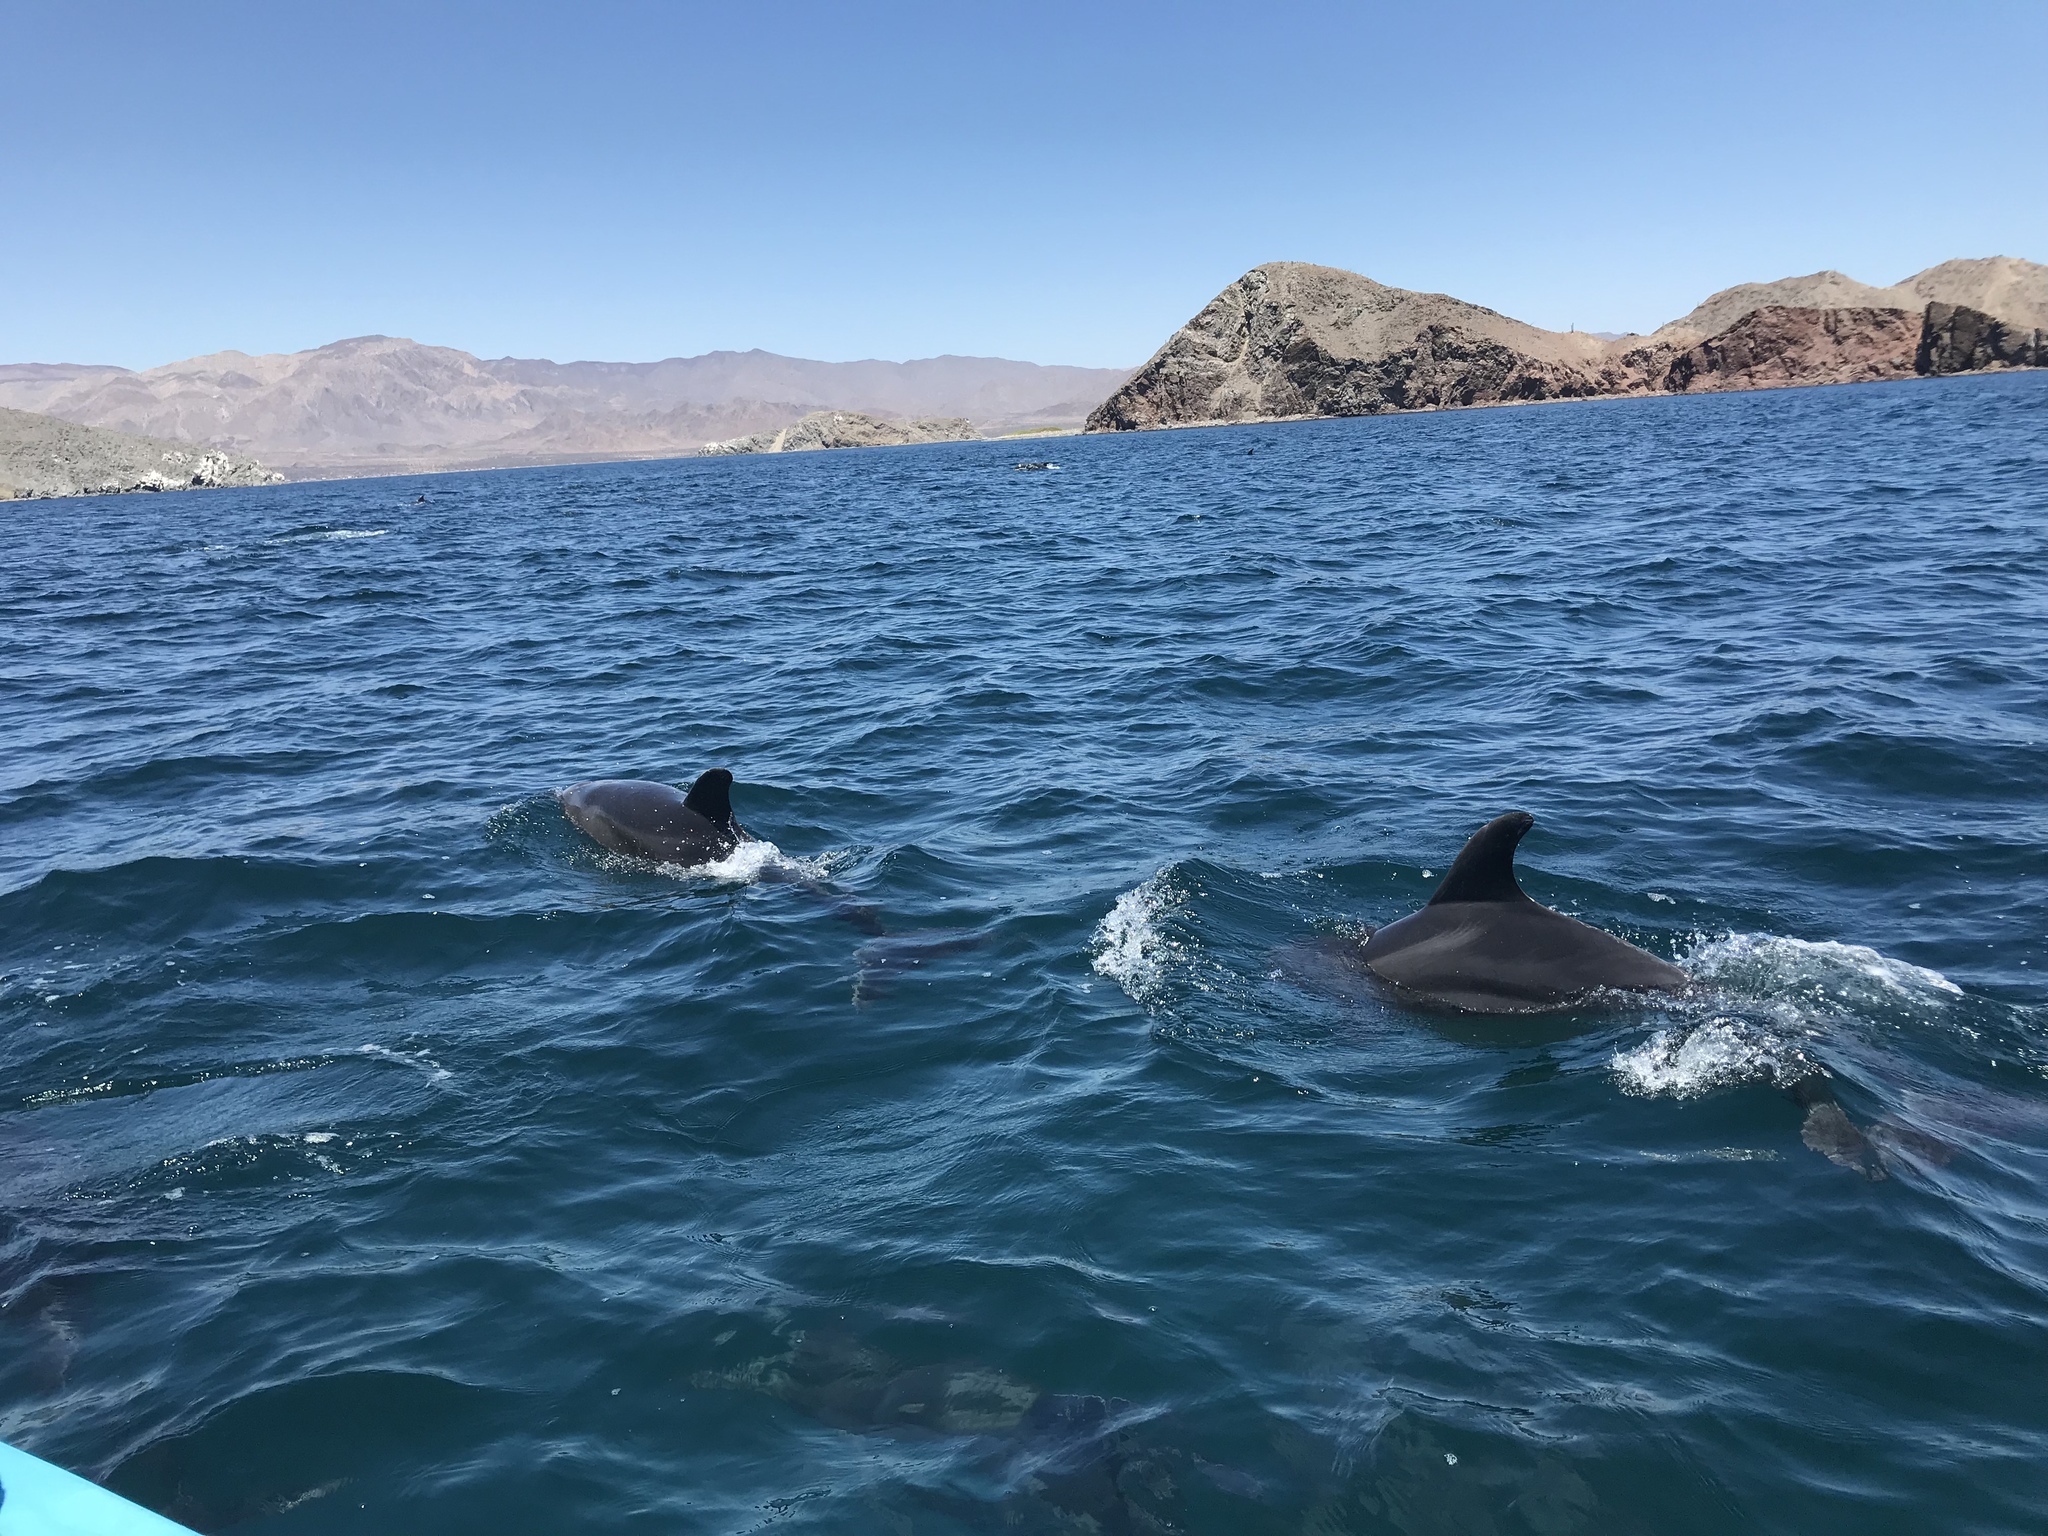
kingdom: Animalia
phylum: Chordata
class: Mammalia
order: Cetacea
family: Delphinidae
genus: Tursiops
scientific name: Tursiops truncatus
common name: Bottlenose dolphin
